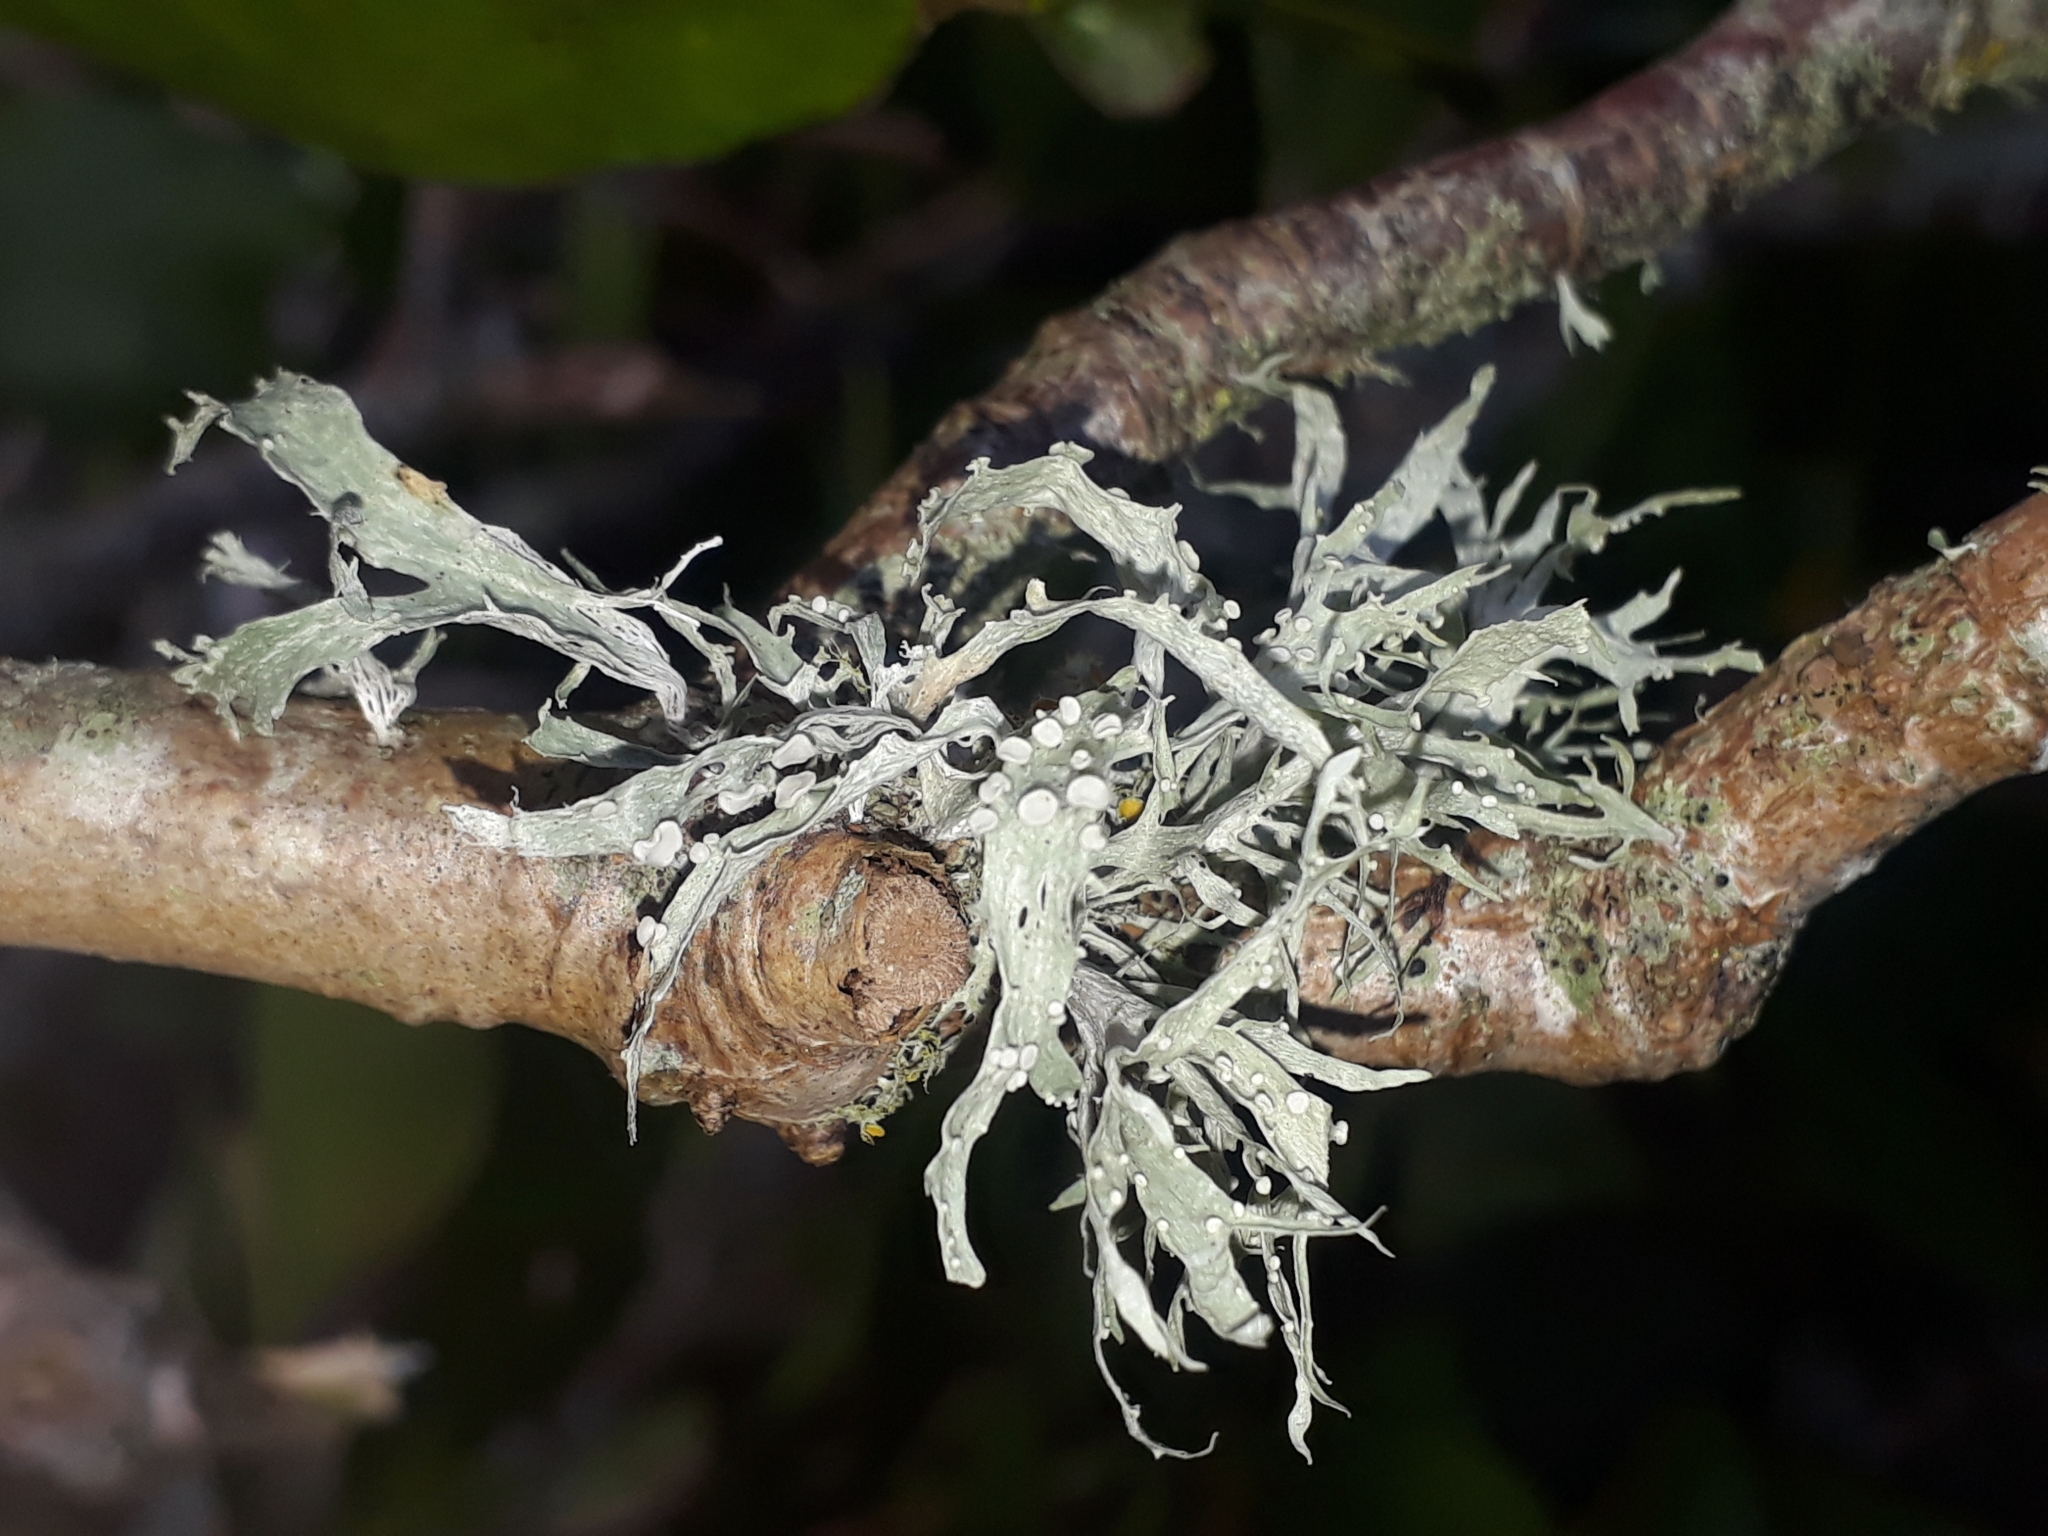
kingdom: Fungi
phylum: Ascomycota
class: Lecanoromycetes
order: Lecanorales
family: Ramalinaceae
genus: Ramalina
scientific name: Ramalina celastri
